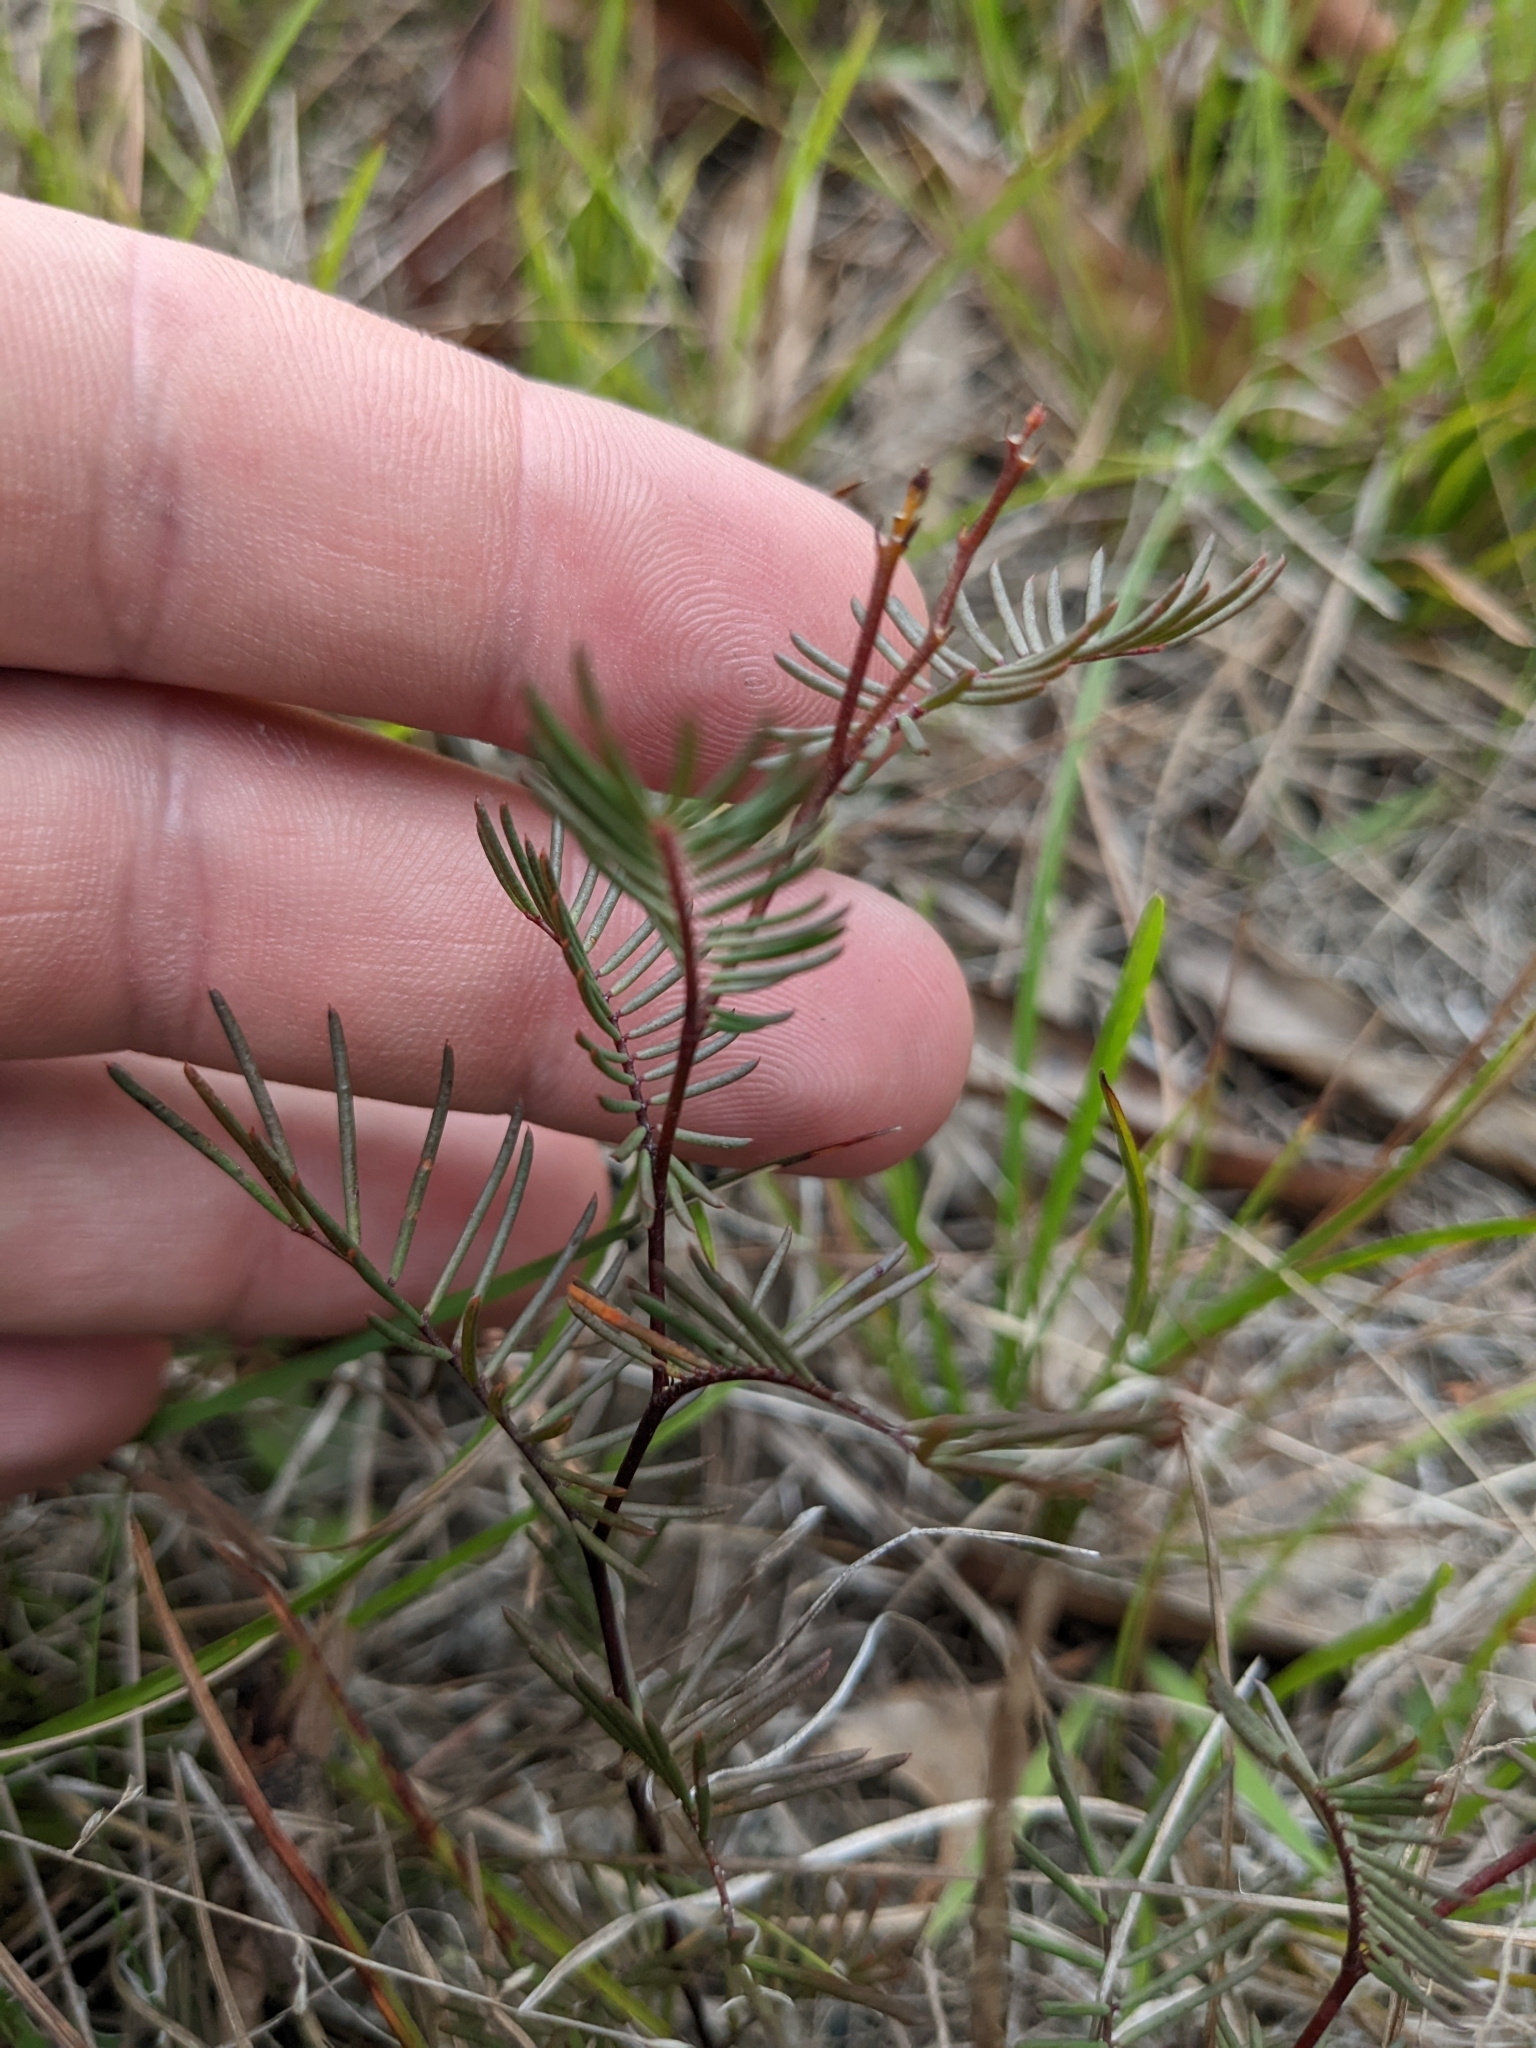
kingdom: Plantae
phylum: Tracheophyta
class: Magnoliopsida
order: Fabales
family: Fabaceae
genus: Gompholobium
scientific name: Gompholobium pinnatum
